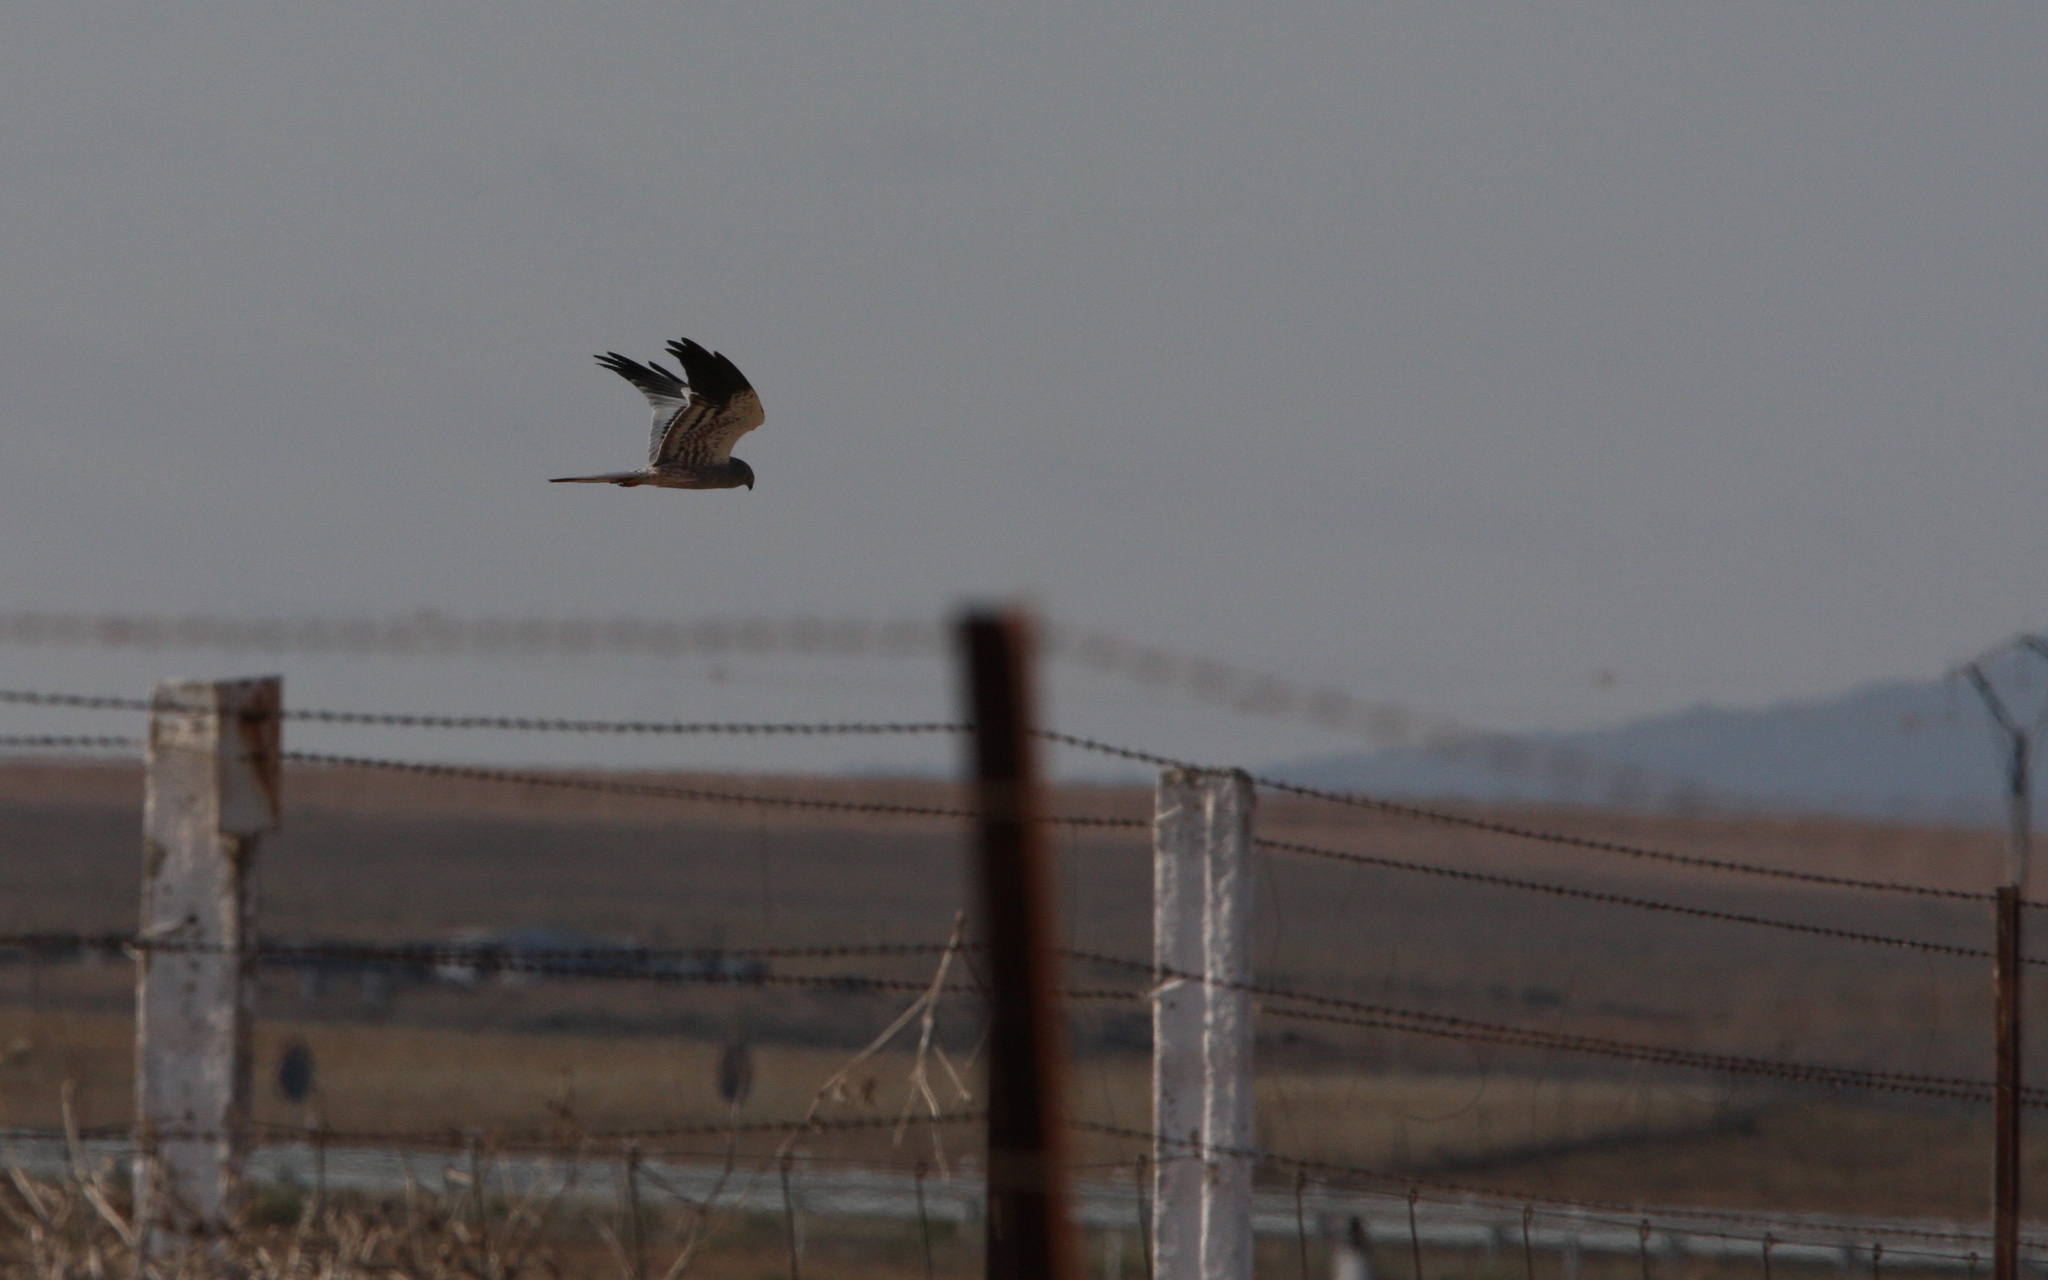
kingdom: Animalia
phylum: Chordata
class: Aves
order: Accipitriformes
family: Accipitridae
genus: Circus
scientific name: Circus pygargus
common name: Montagu's harrier
